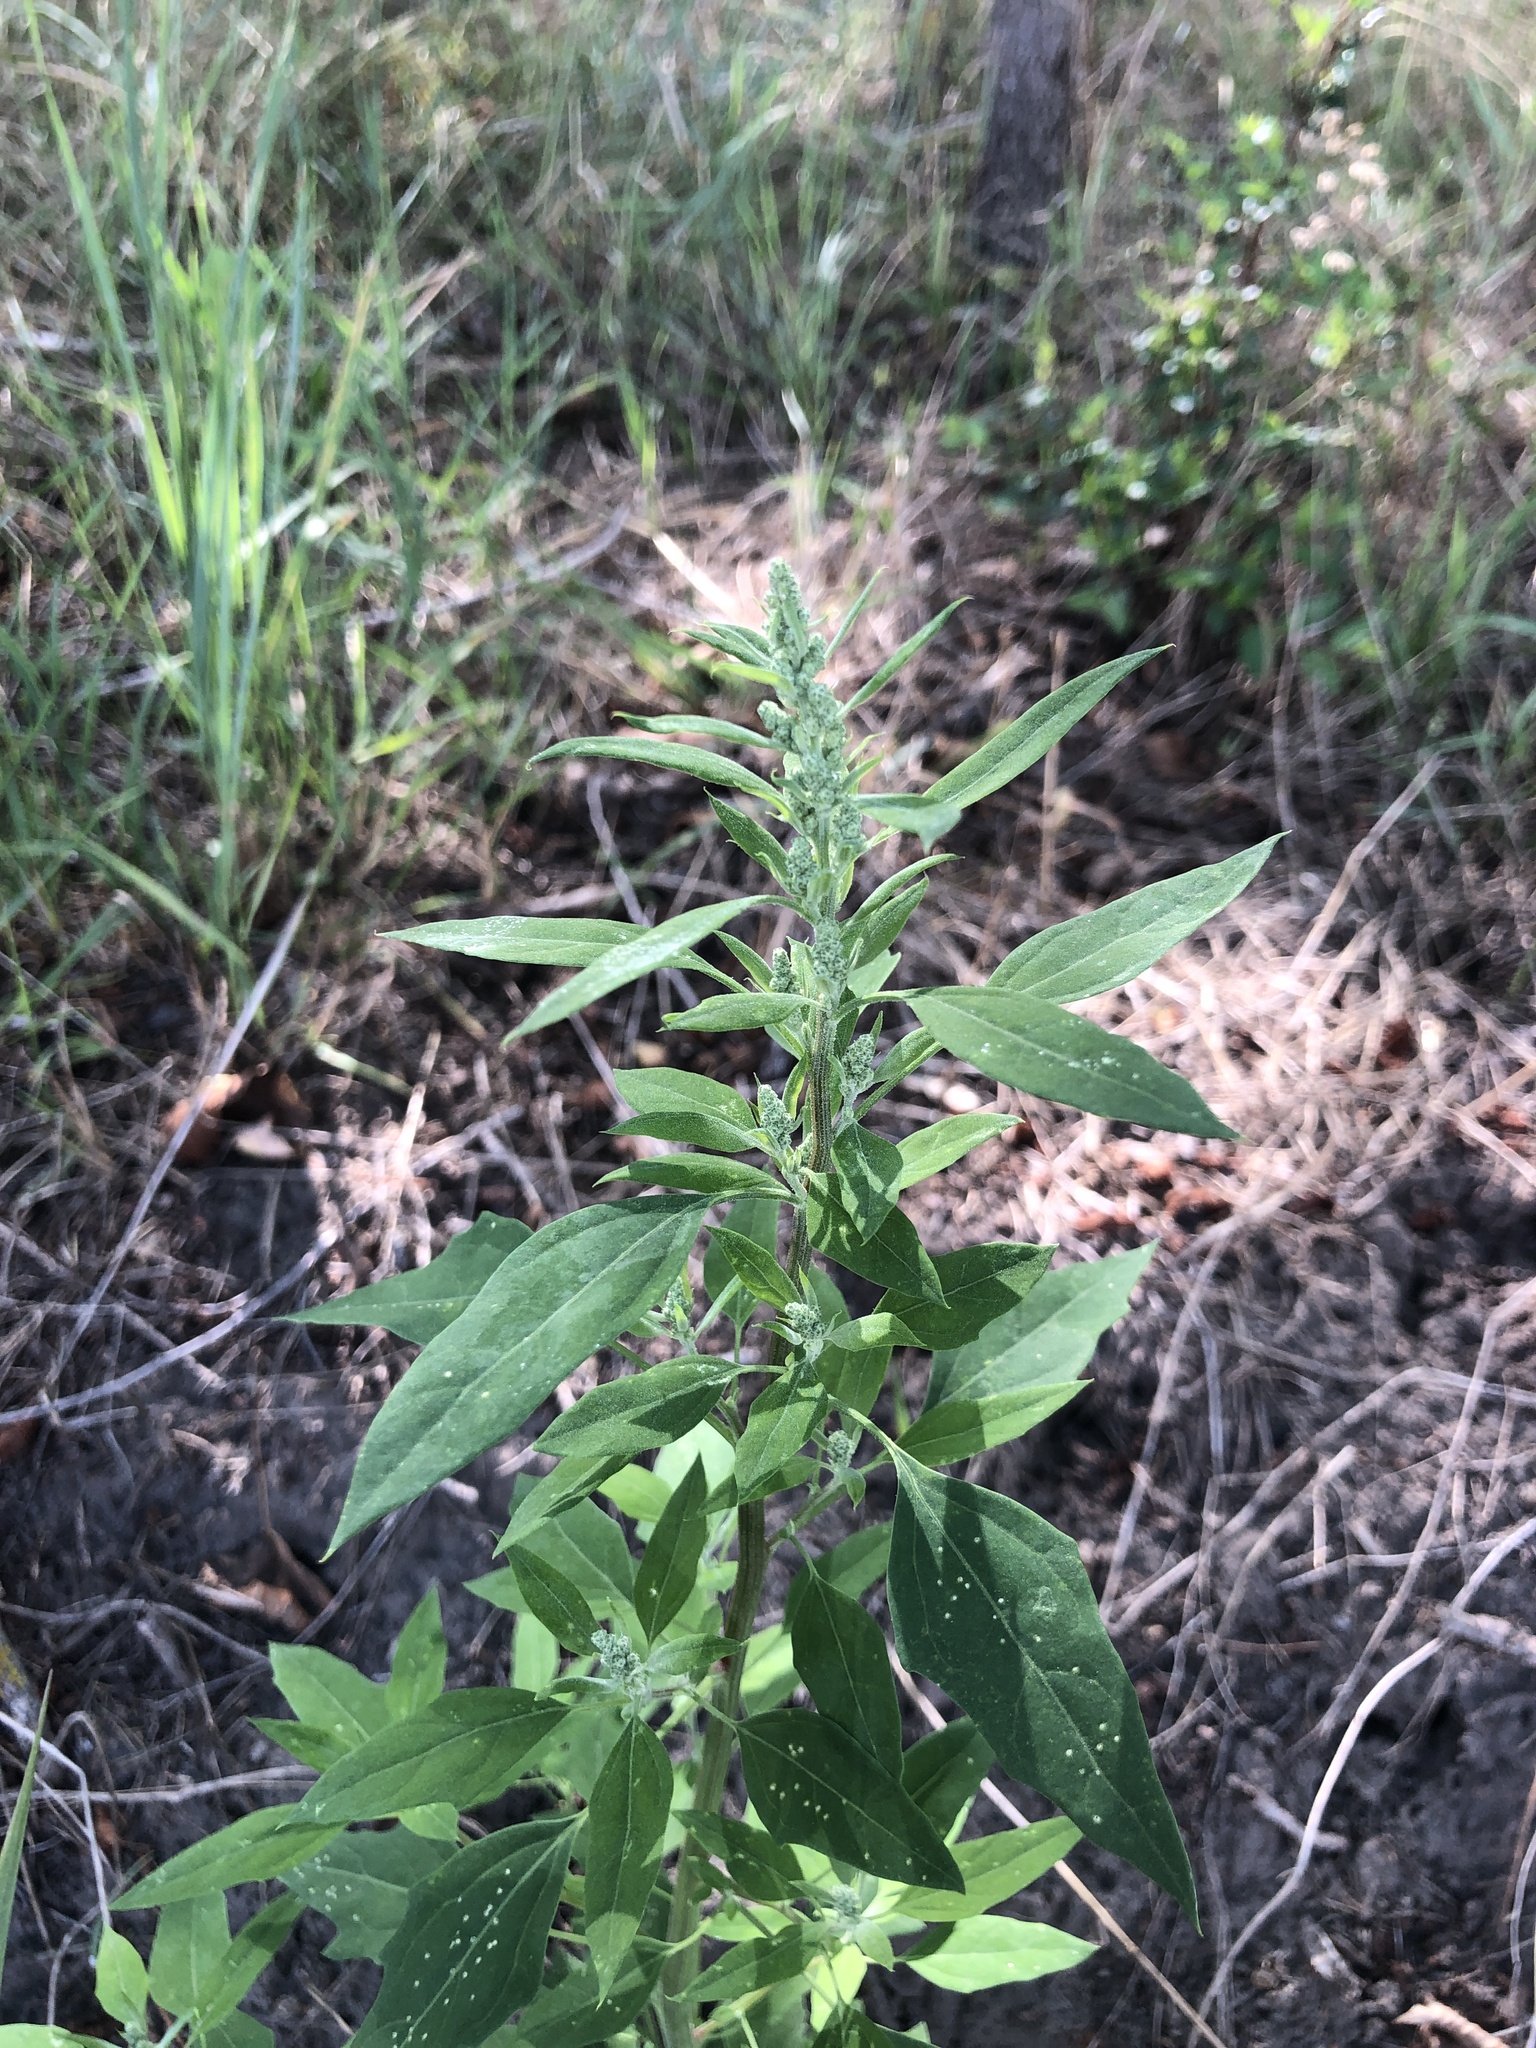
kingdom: Plantae
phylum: Tracheophyta
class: Magnoliopsida
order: Caryophyllales
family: Amaranthaceae
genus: Chenopodium
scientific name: Chenopodium album
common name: Fat-hen
